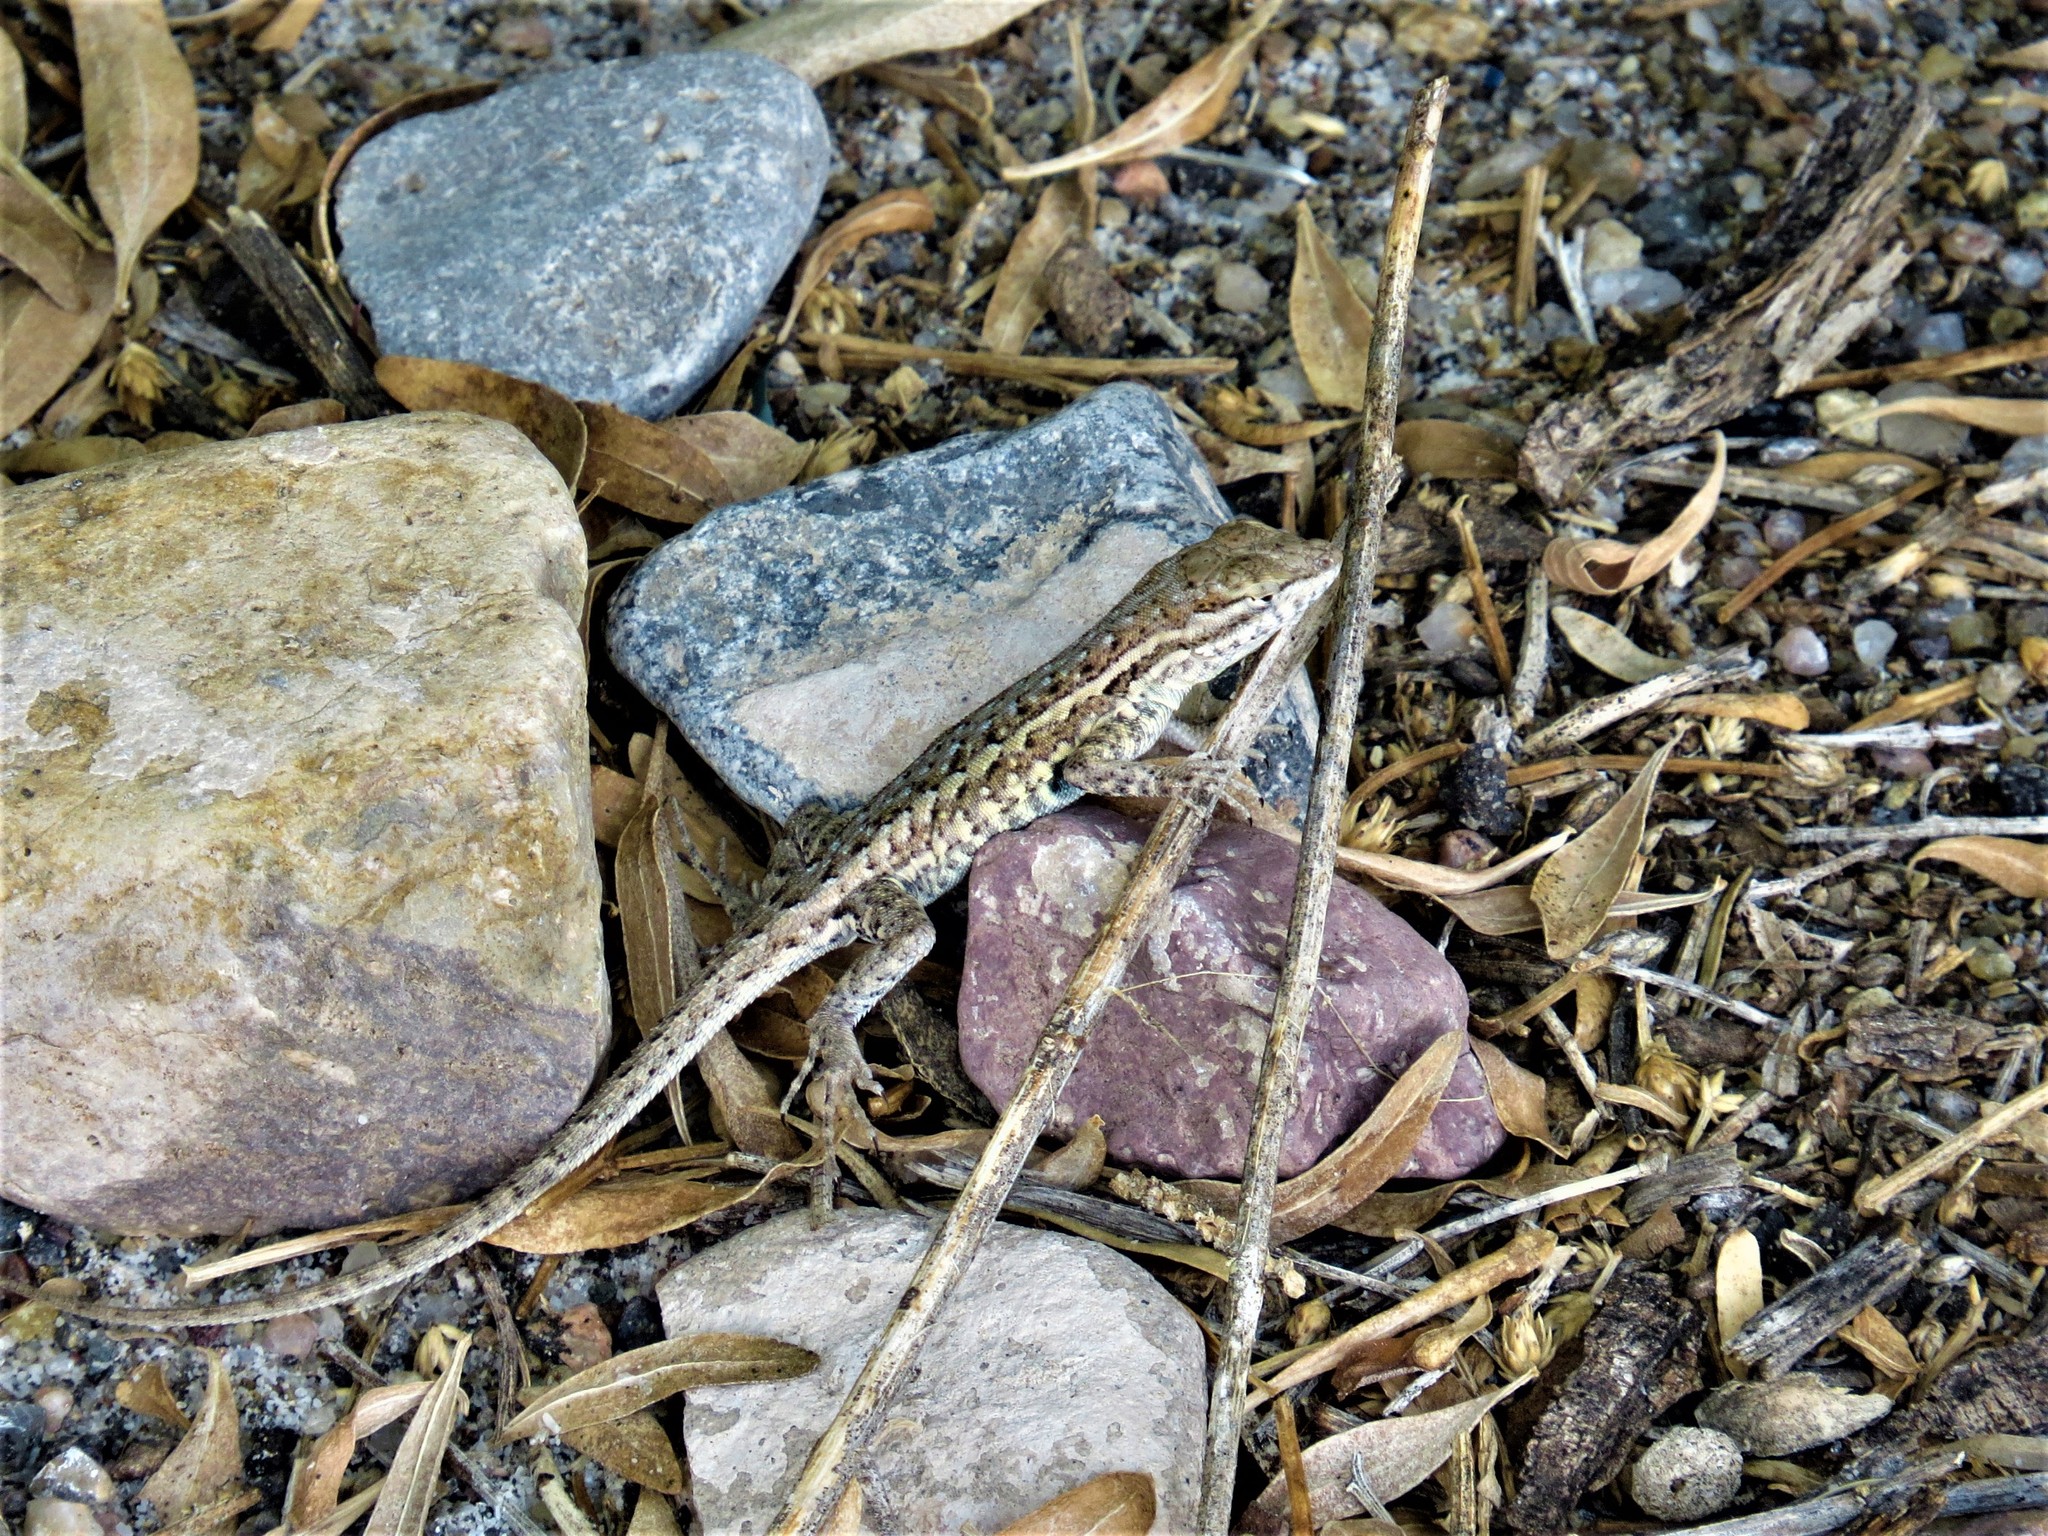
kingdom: Animalia
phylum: Chordata
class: Squamata
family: Phrynosomatidae
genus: Uta
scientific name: Uta stansburiana
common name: Side-blotched lizard
